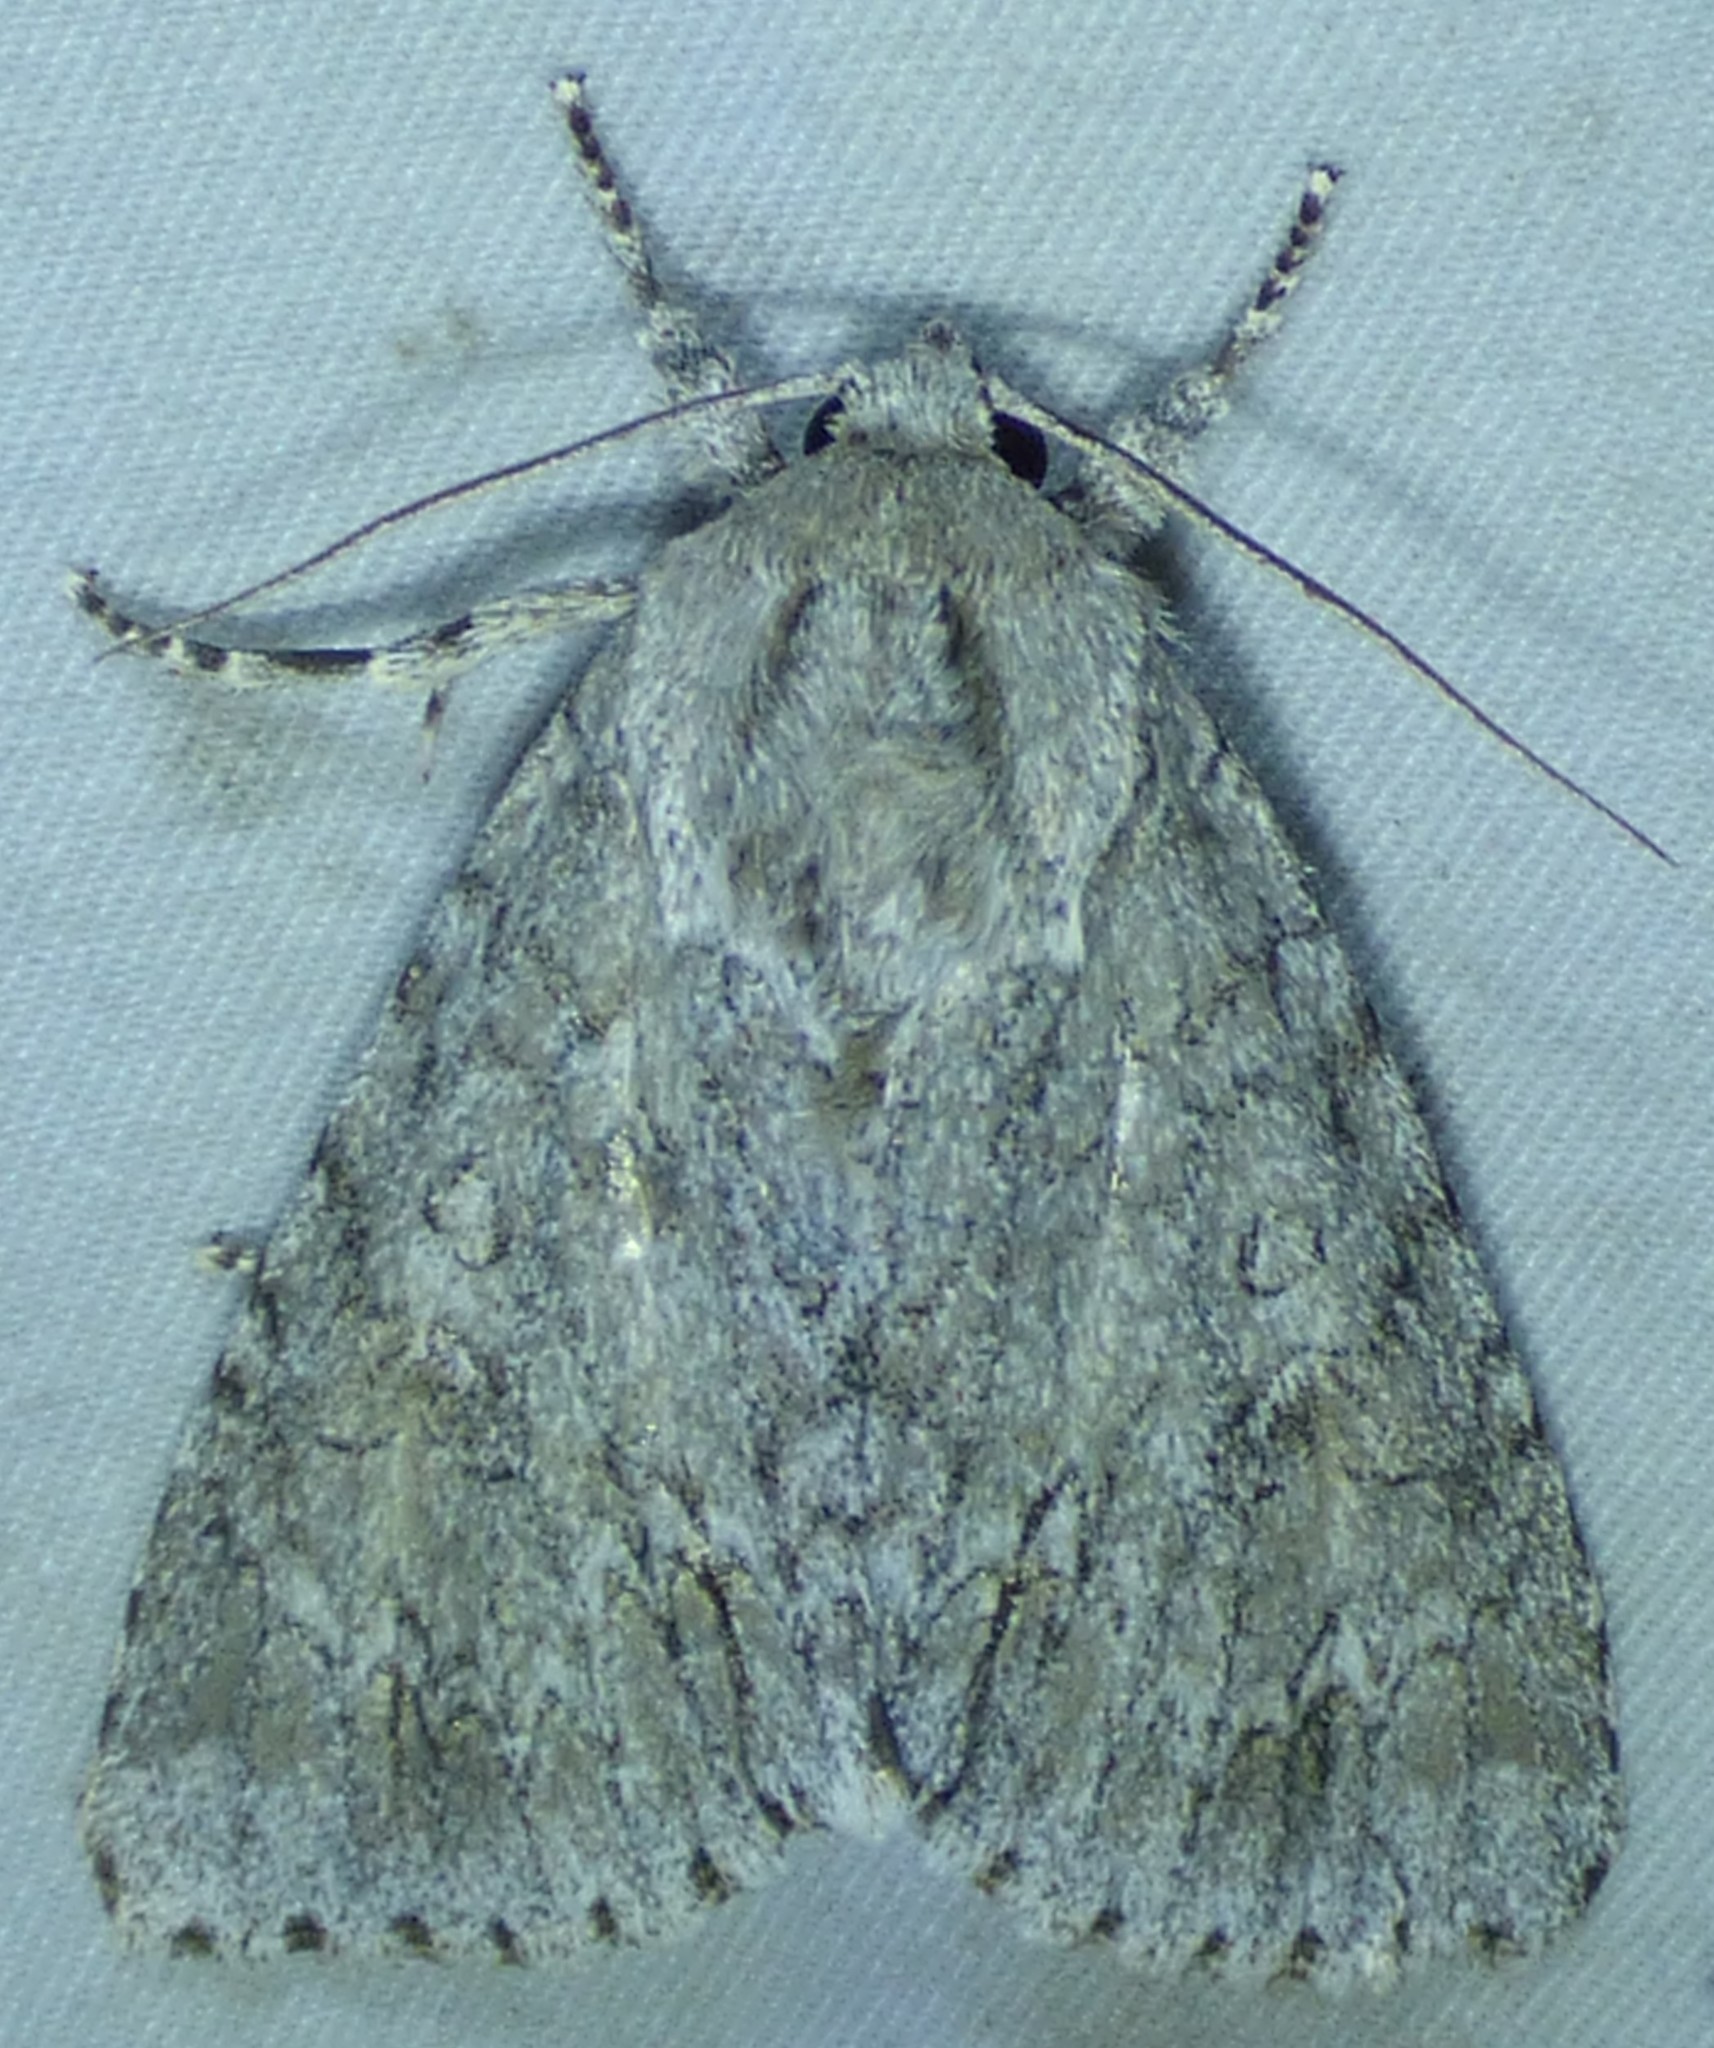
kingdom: Animalia
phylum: Arthropoda
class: Insecta
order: Lepidoptera
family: Noctuidae
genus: Acronicta
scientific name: Acronicta impleta
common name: Powdered dagger
